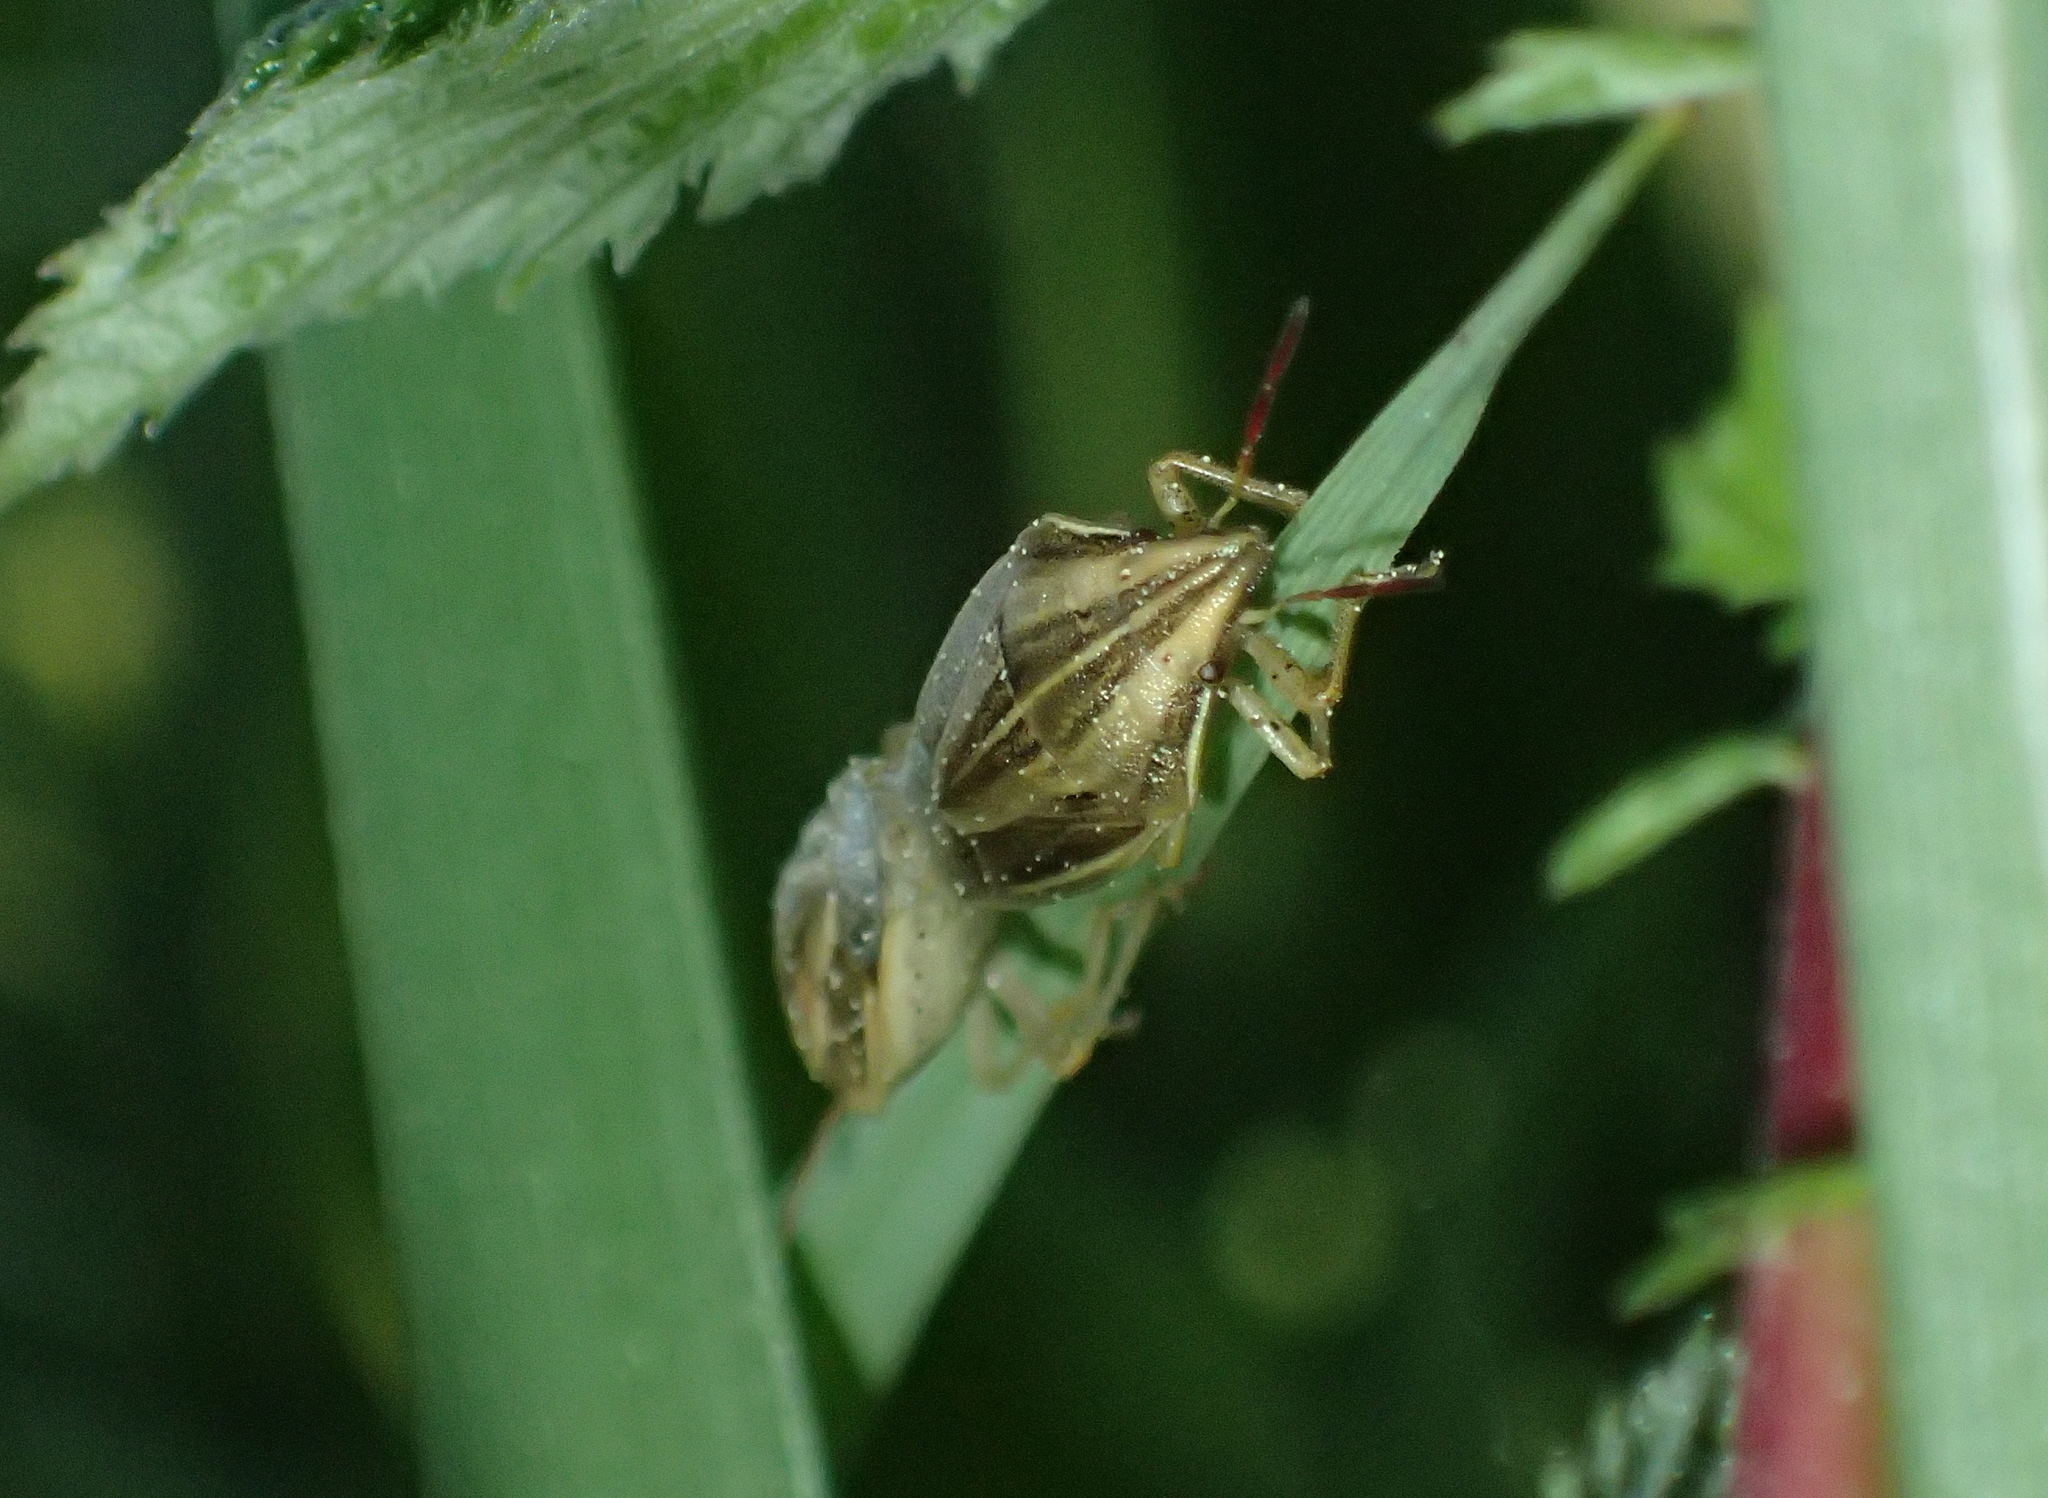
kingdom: Animalia
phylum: Arthropoda
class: Insecta
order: Hemiptera
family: Pentatomidae
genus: Aelia
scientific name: Aelia acuminata
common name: Bishop's mitre
